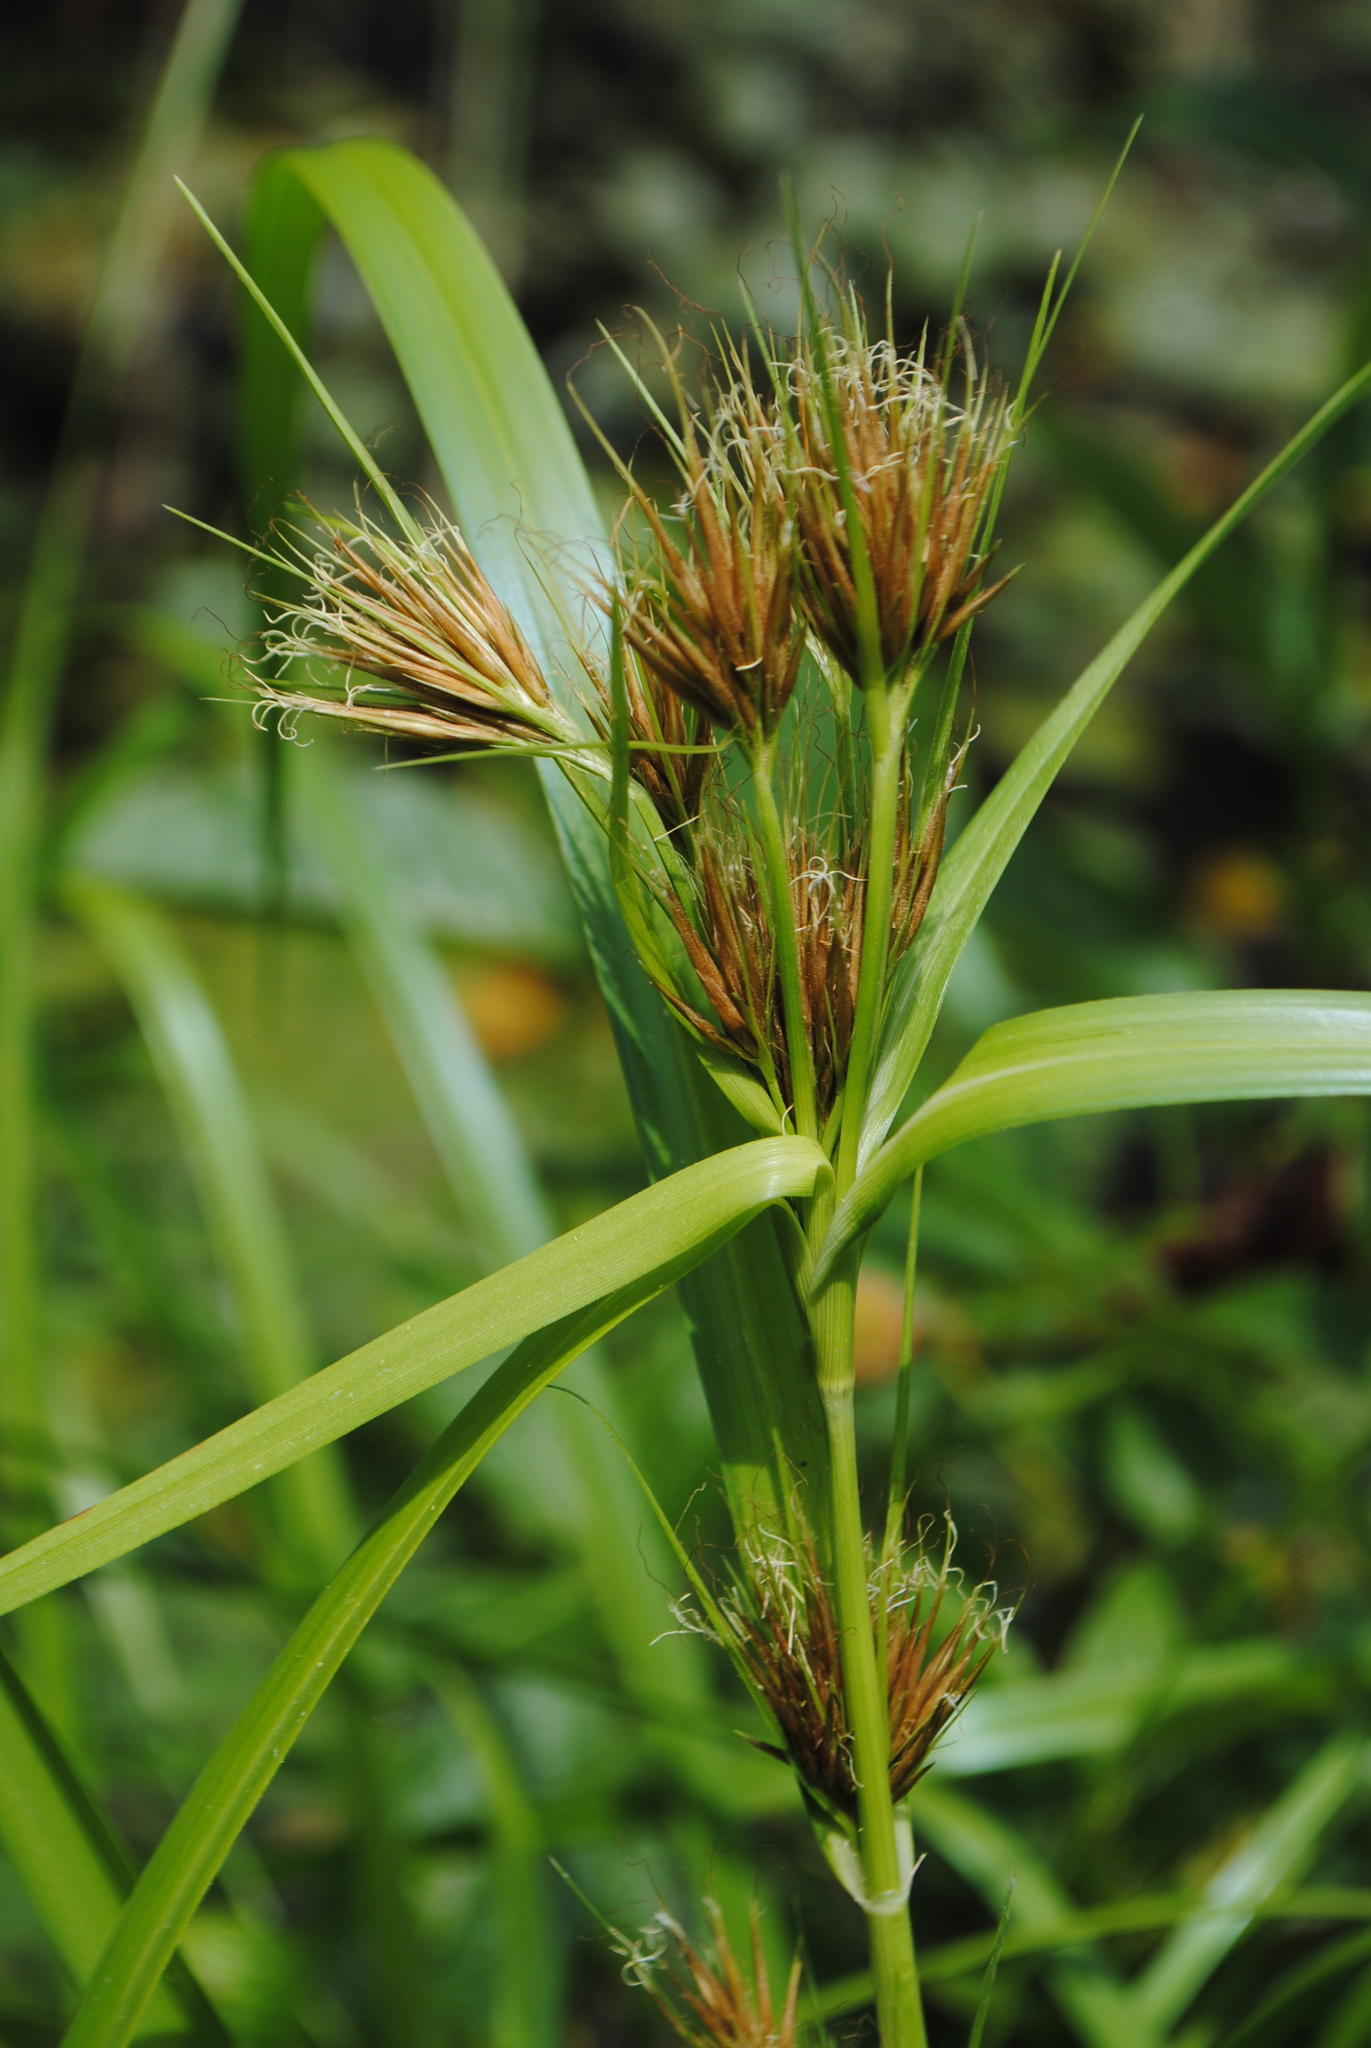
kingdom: Plantae
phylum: Tracheophyta
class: Liliopsida
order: Poales
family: Cyperaceae
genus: Rhynchospora
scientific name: Rhynchospora macrostachya
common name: Tall beakrush
